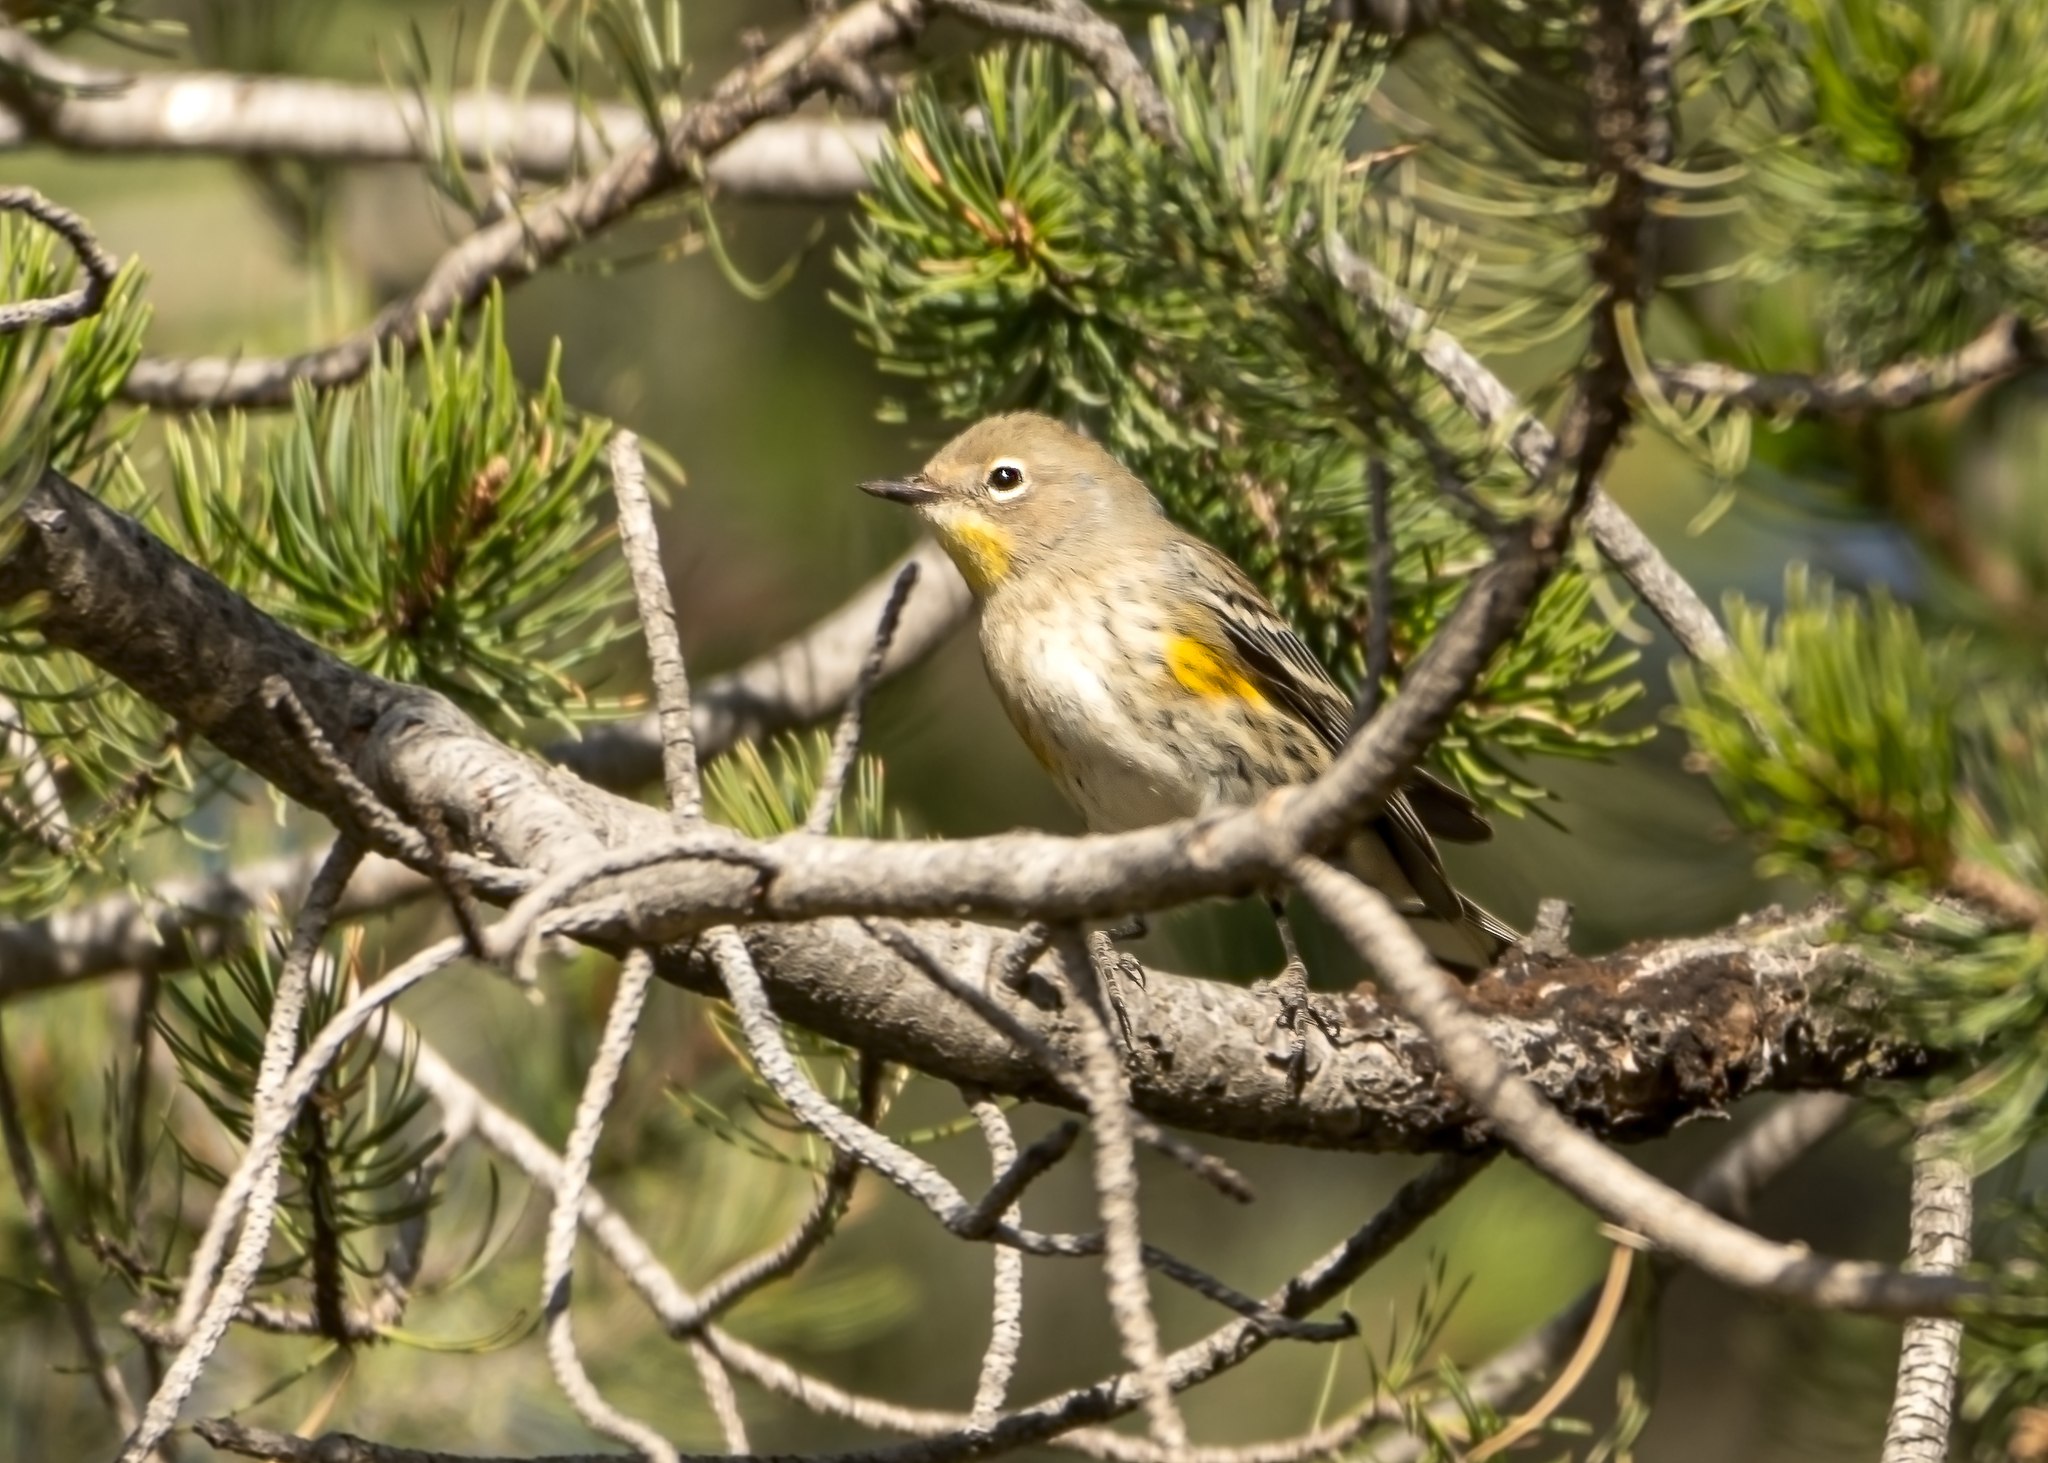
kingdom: Animalia
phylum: Chordata
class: Aves
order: Passeriformes
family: Parulidae
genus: Setophaga
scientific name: Setophaga coronata
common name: Myrtle warbler
